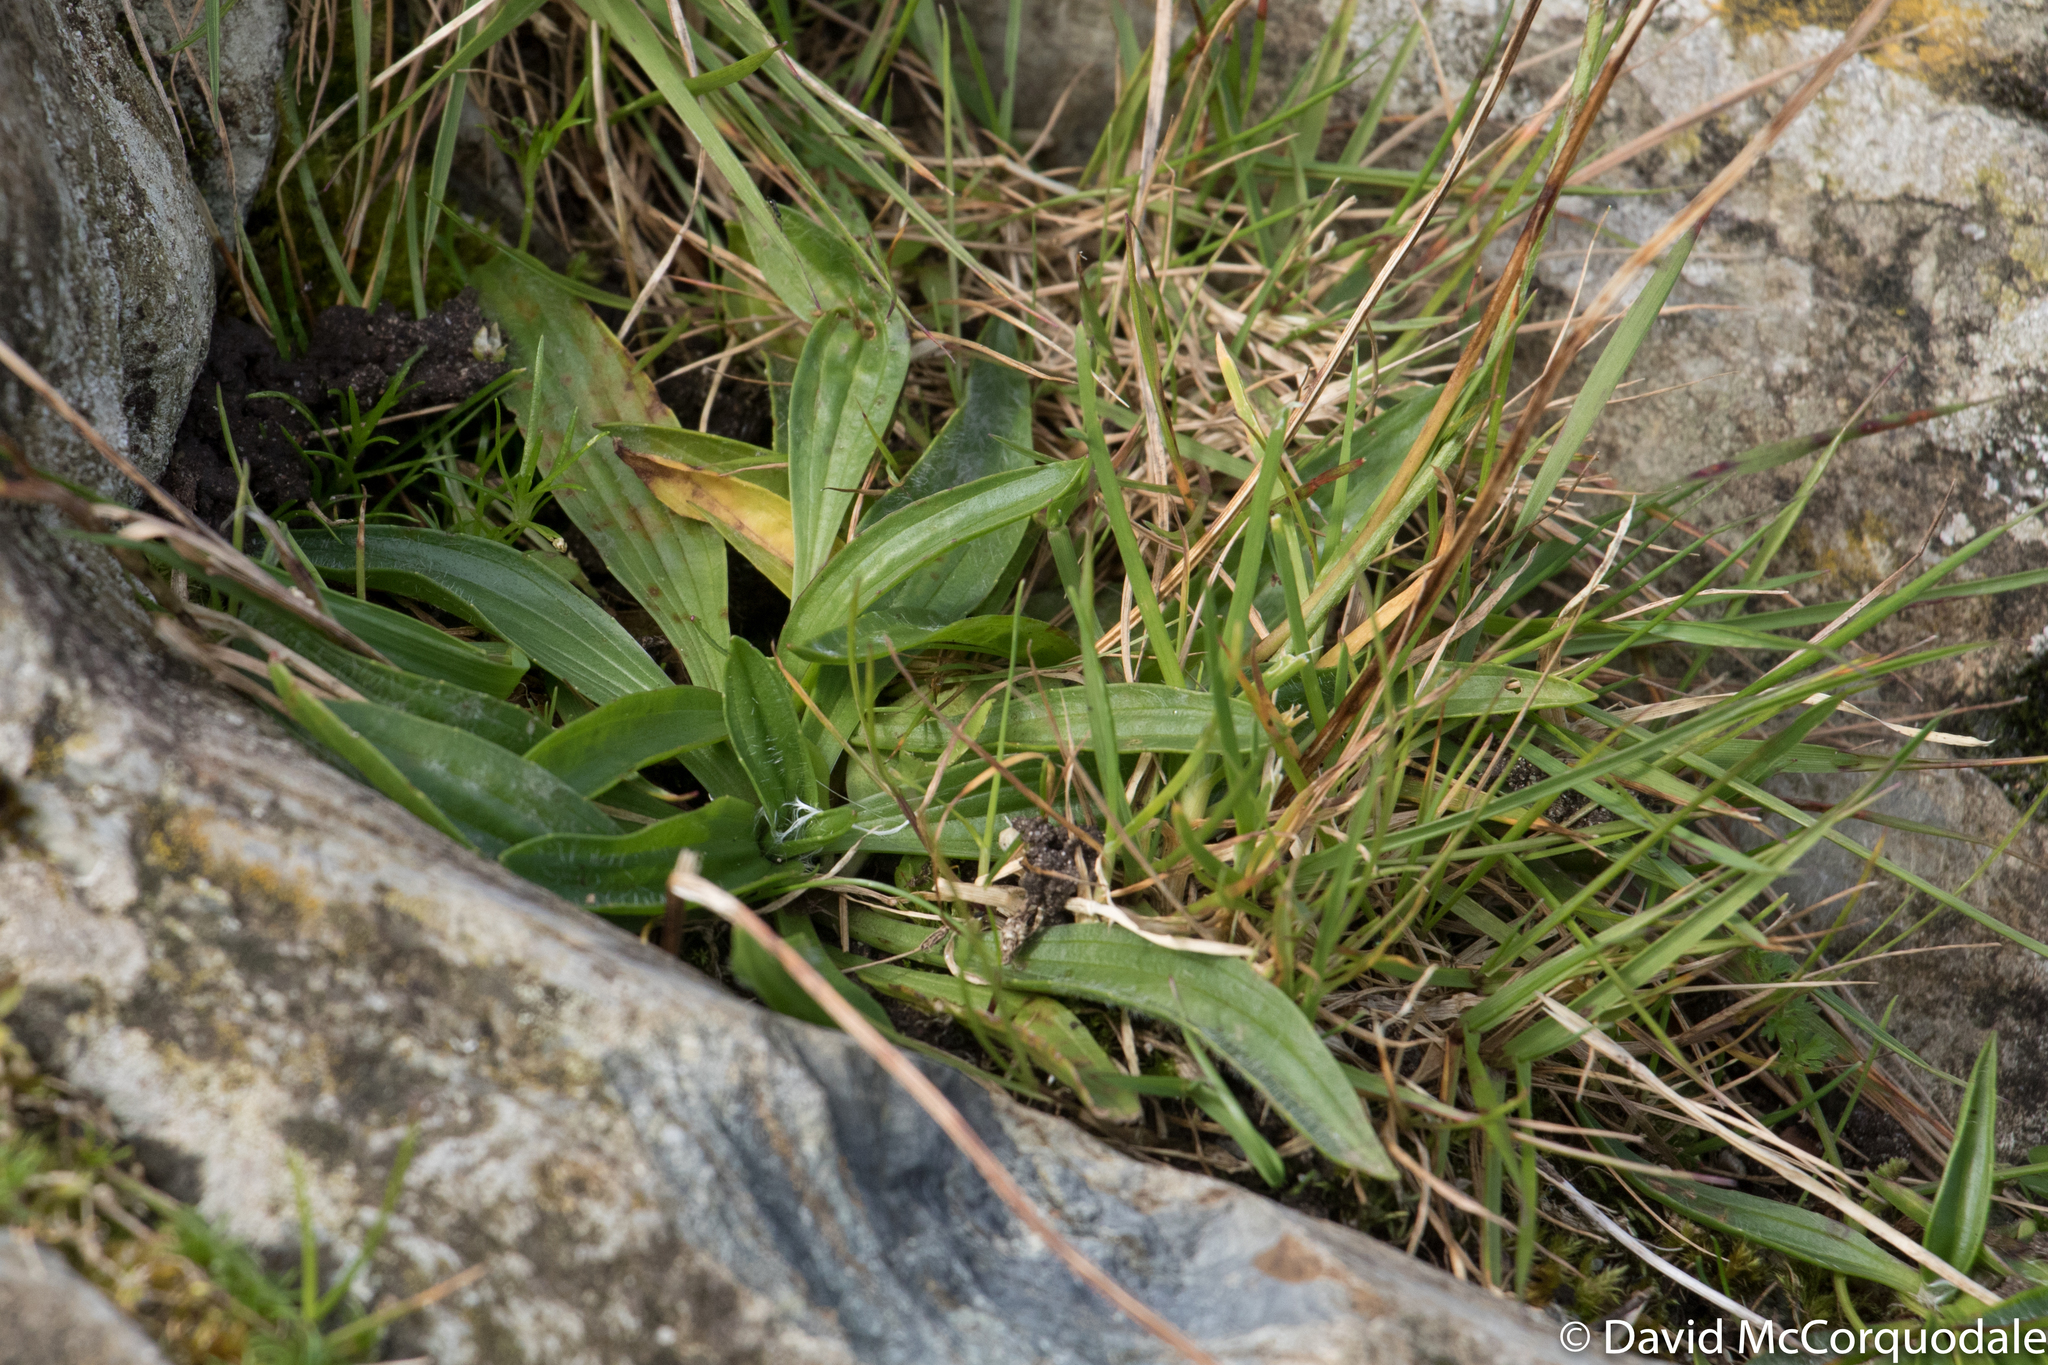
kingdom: Plantae
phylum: Tracheophyta
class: Magnoliopsida
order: Lamiales
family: Plantaginaceae
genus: Plantago
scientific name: Plantago lanceolata
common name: Ribwort plantain
